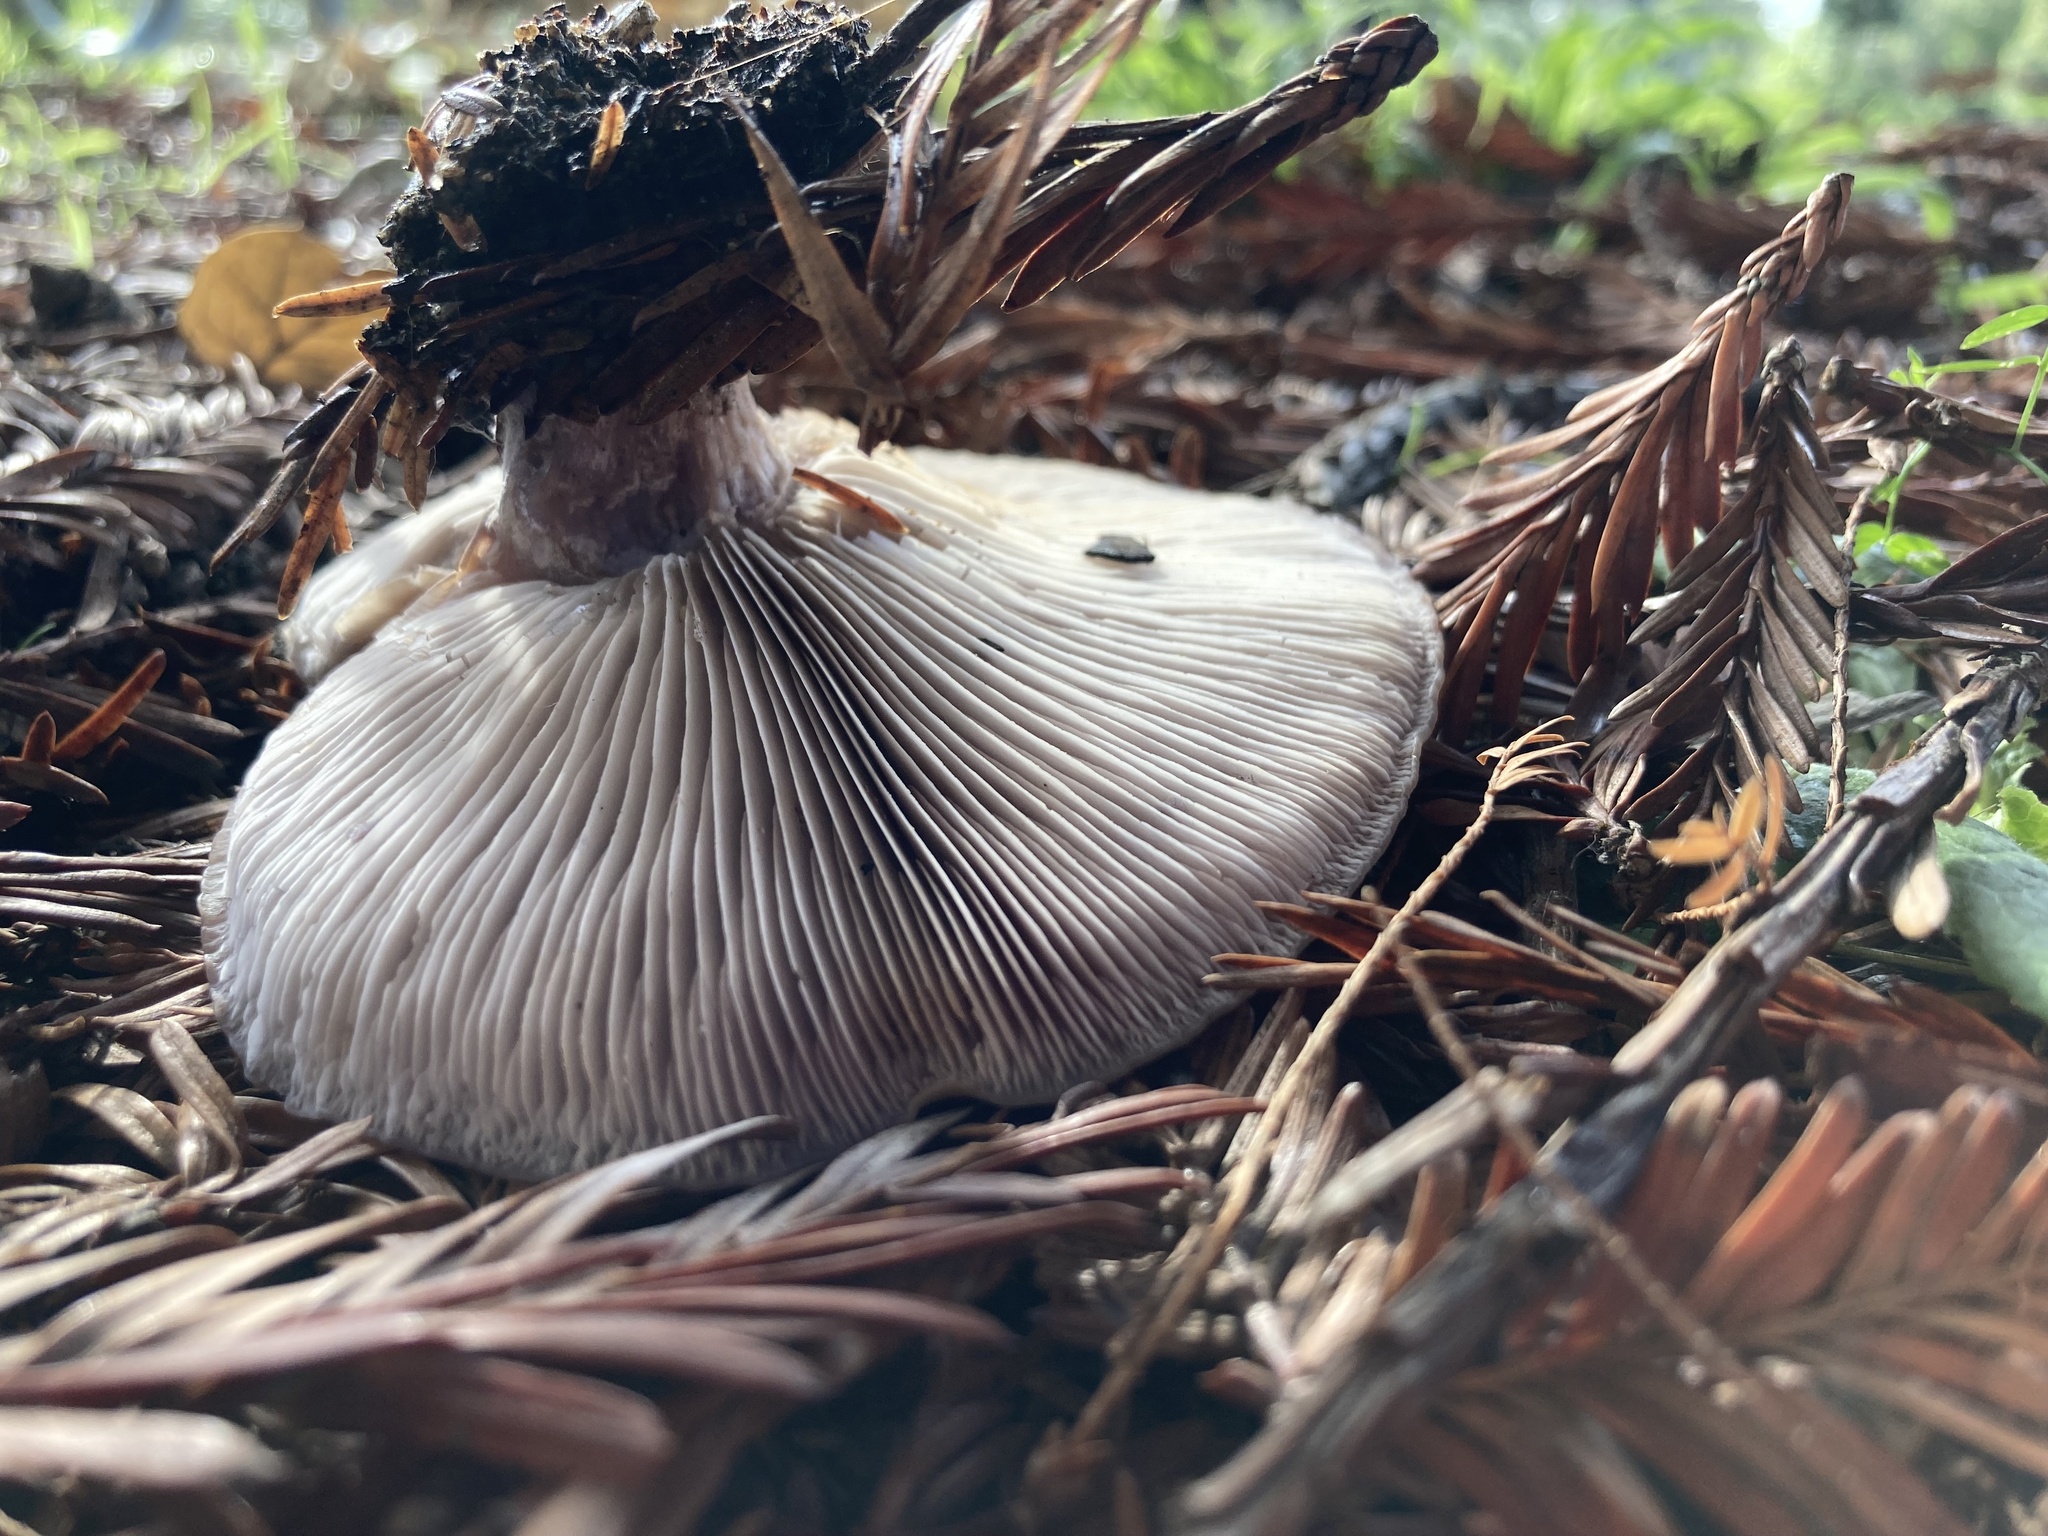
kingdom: Fungi
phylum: Basidiomycota
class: Agaricomycetes
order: Agaricales
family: Tricholomataceae
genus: Collybia
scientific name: Collybia
